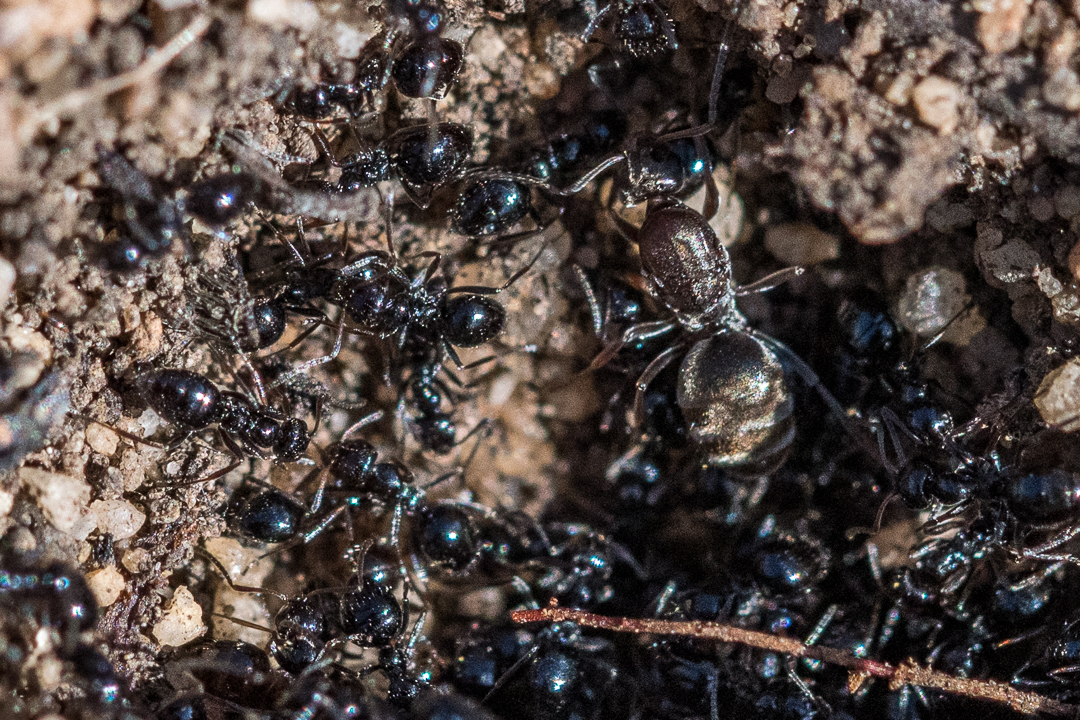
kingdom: Animalia
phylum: Arthropoda
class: Insecta
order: Hymenoptera
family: Formicidae
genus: Lepisiota
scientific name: Lepisiota capensis
